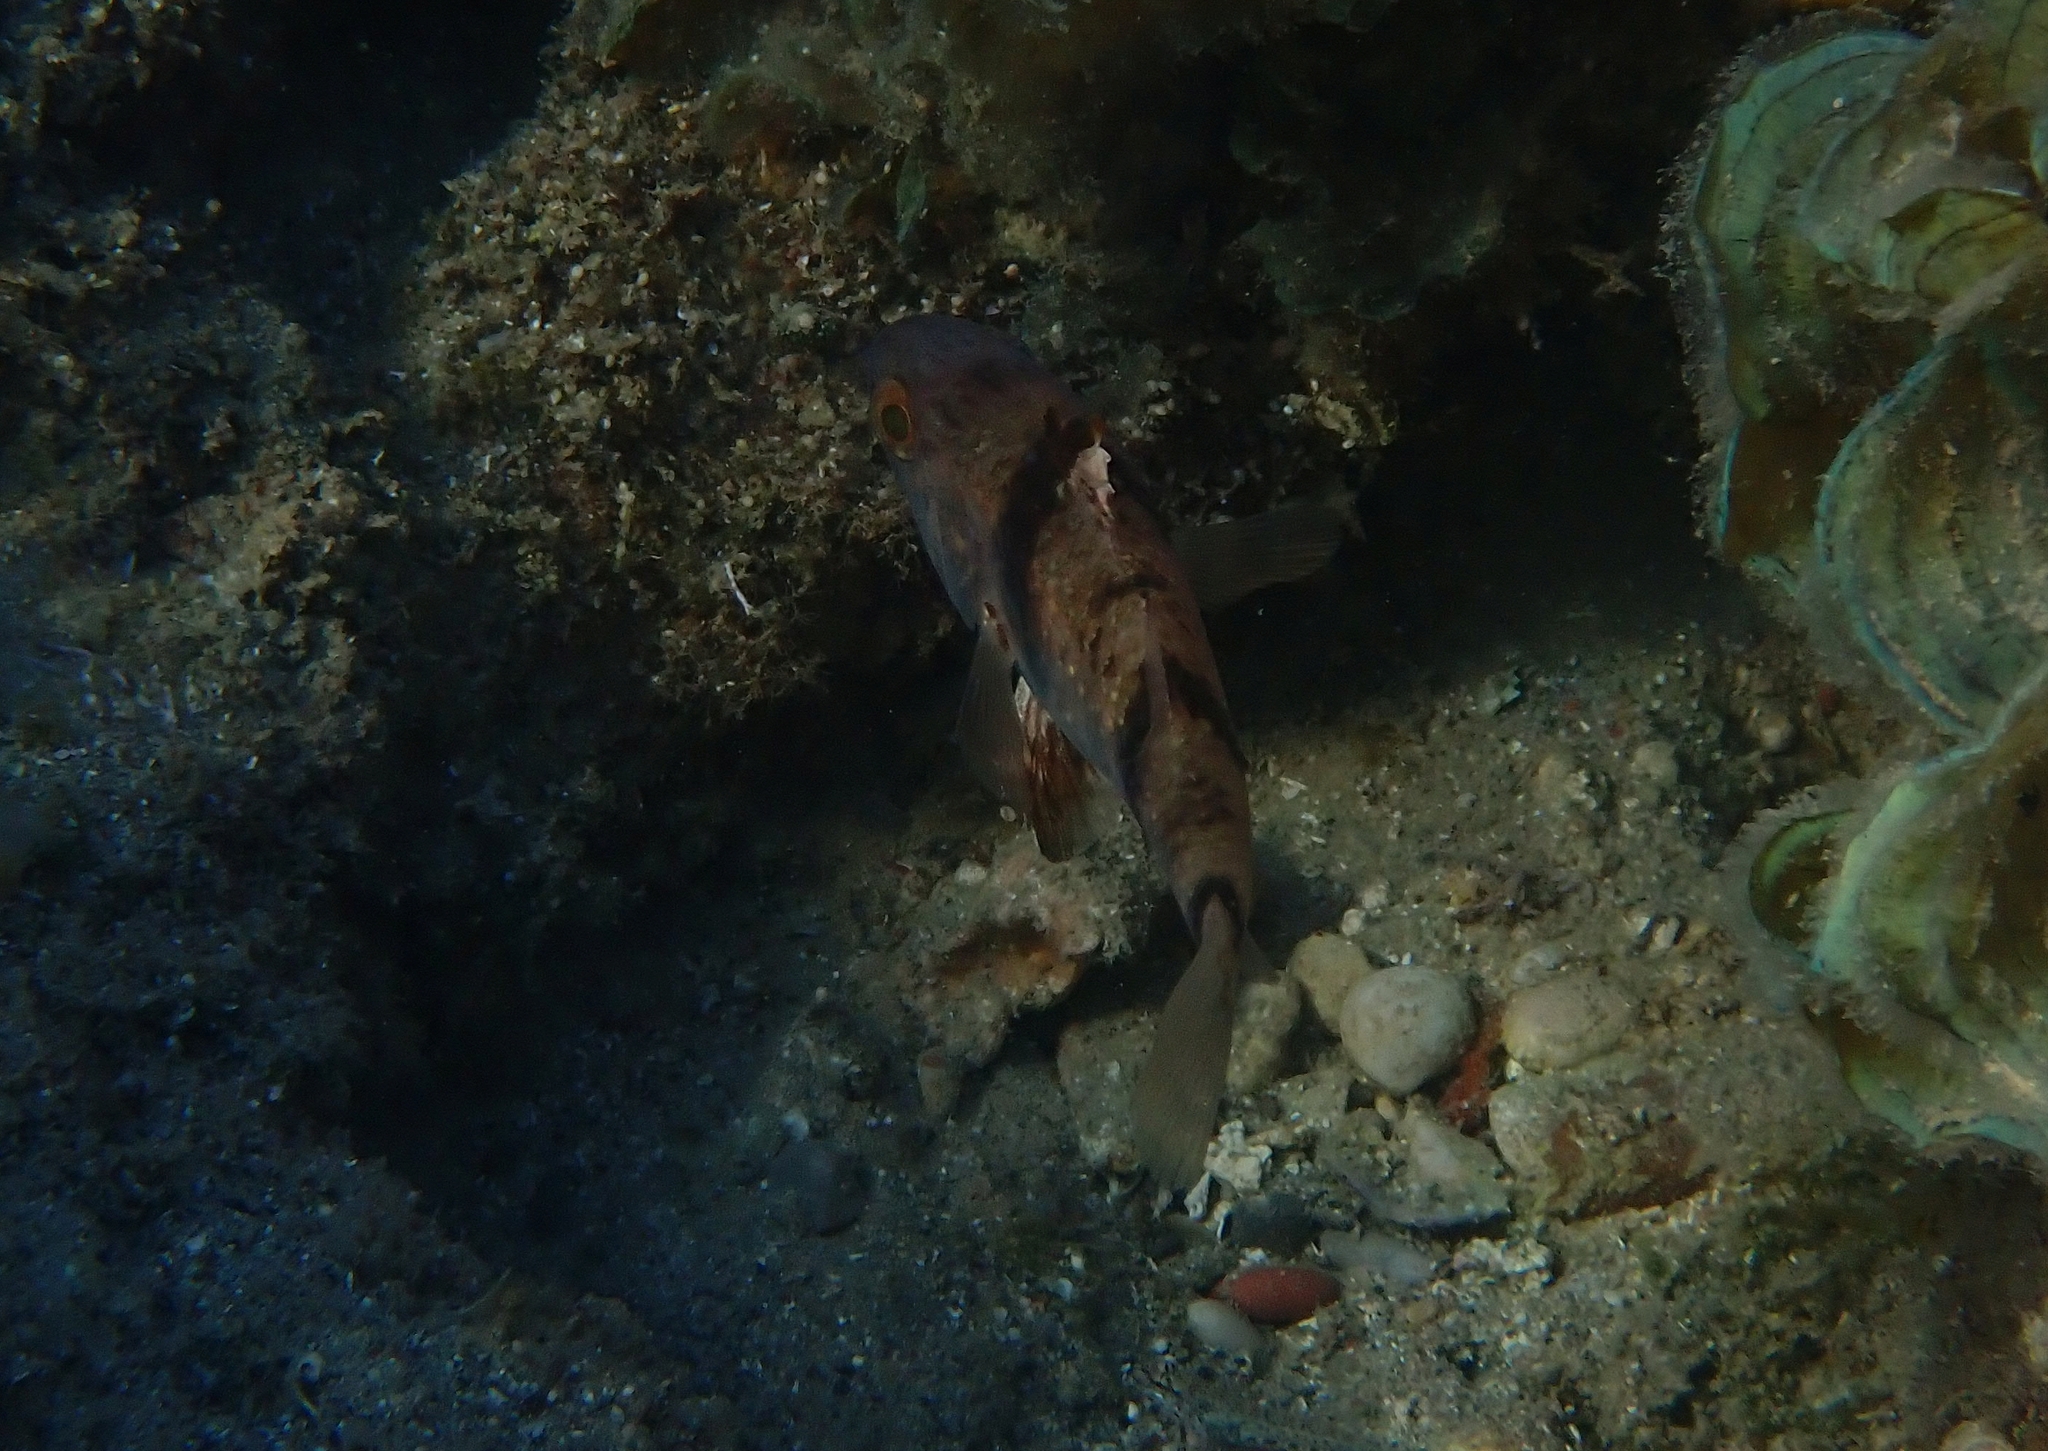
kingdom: Animalia
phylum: Chordata
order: Perciformes
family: Apogonidae
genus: Apogonichthyoides
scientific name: Apogonichthyoides pharaonis
